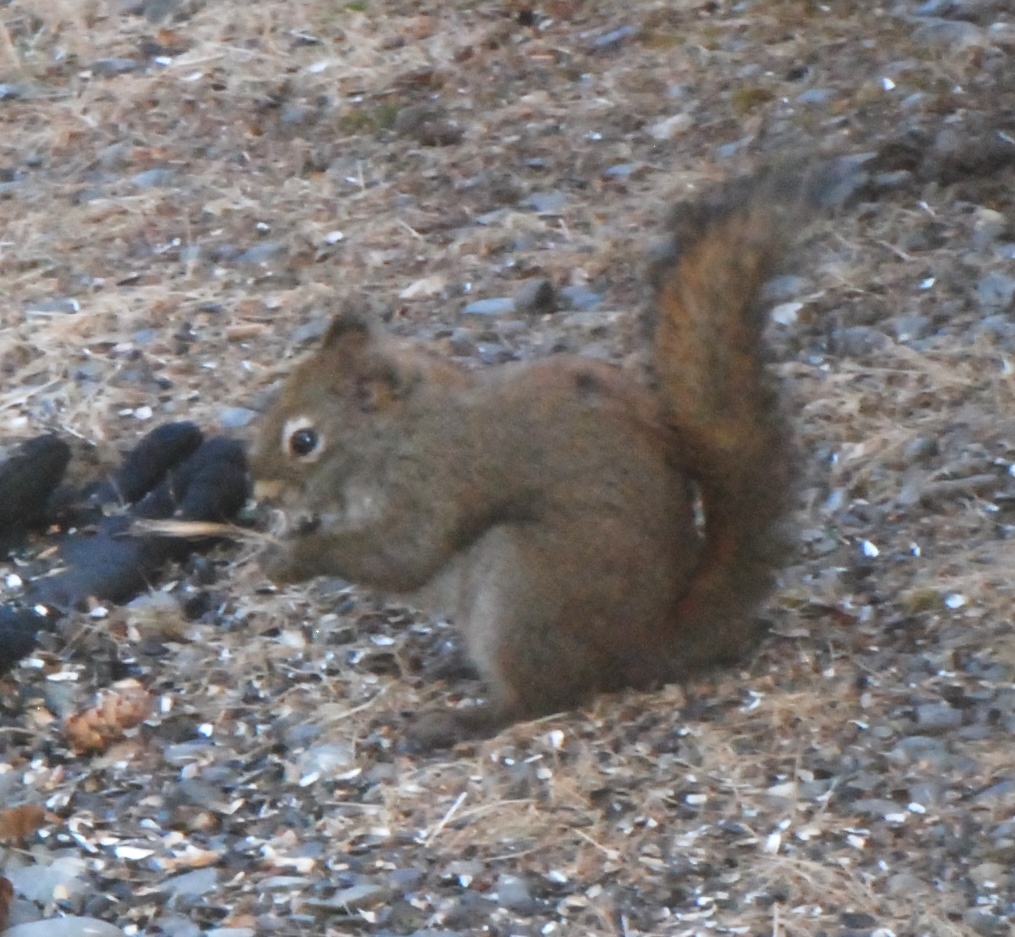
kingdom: Animalia
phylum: Chordata
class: Mammalia
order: Rodentia
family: Sciuridae
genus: Tamiasciurus
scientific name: Tamiasciurus hudsonicus
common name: Red squirrel
